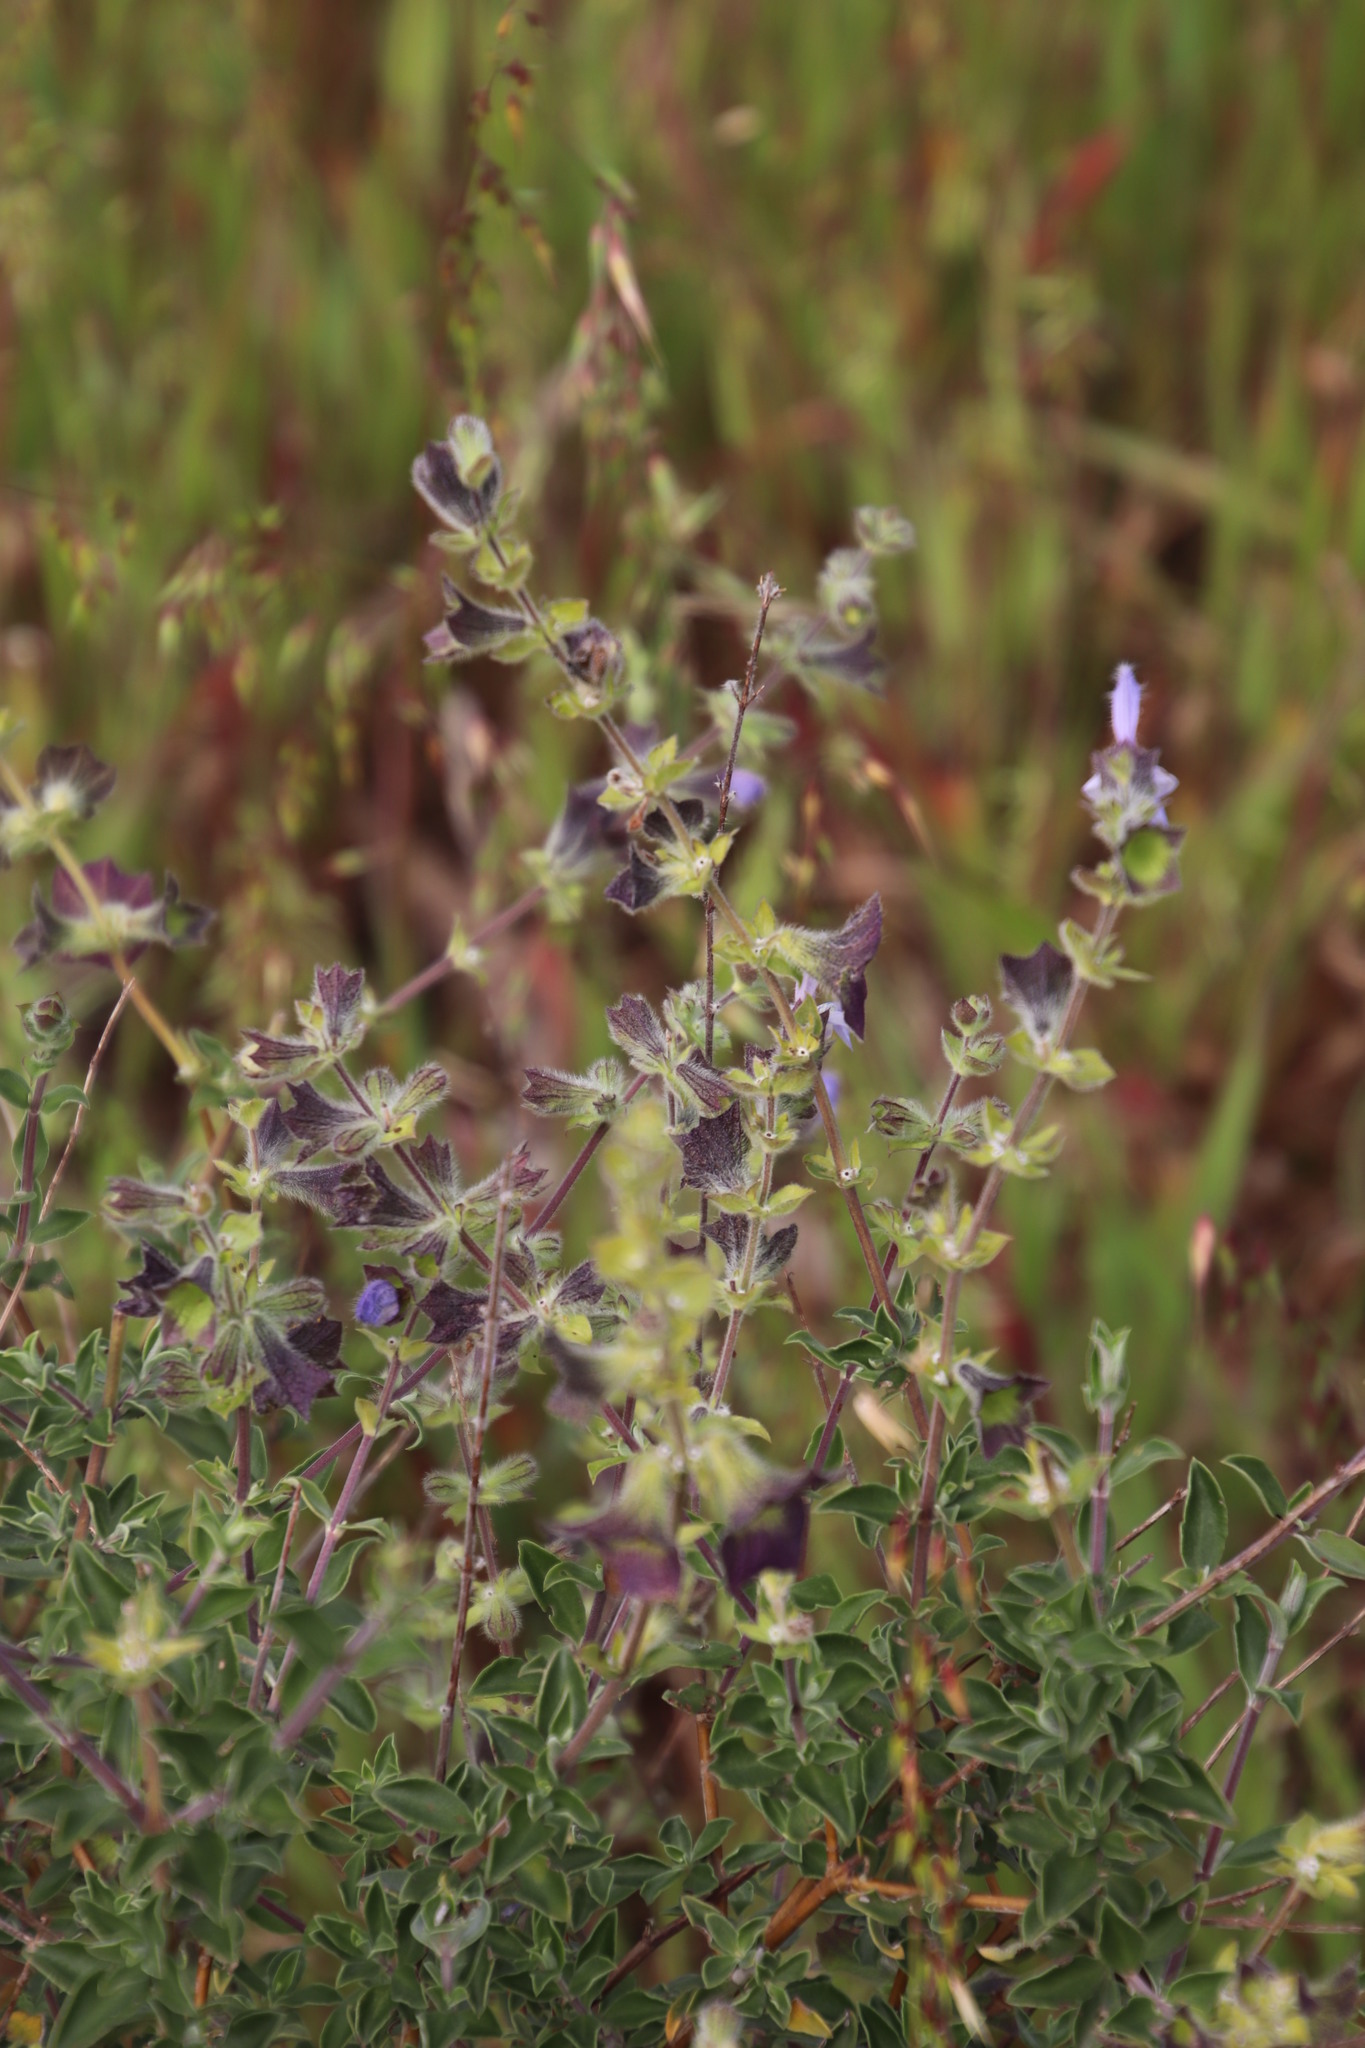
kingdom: Plantae
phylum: Tracheophyta
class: Magnoliopsida
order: Lamiales
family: Lamiaceae
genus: Salvia
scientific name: Salvia africana
